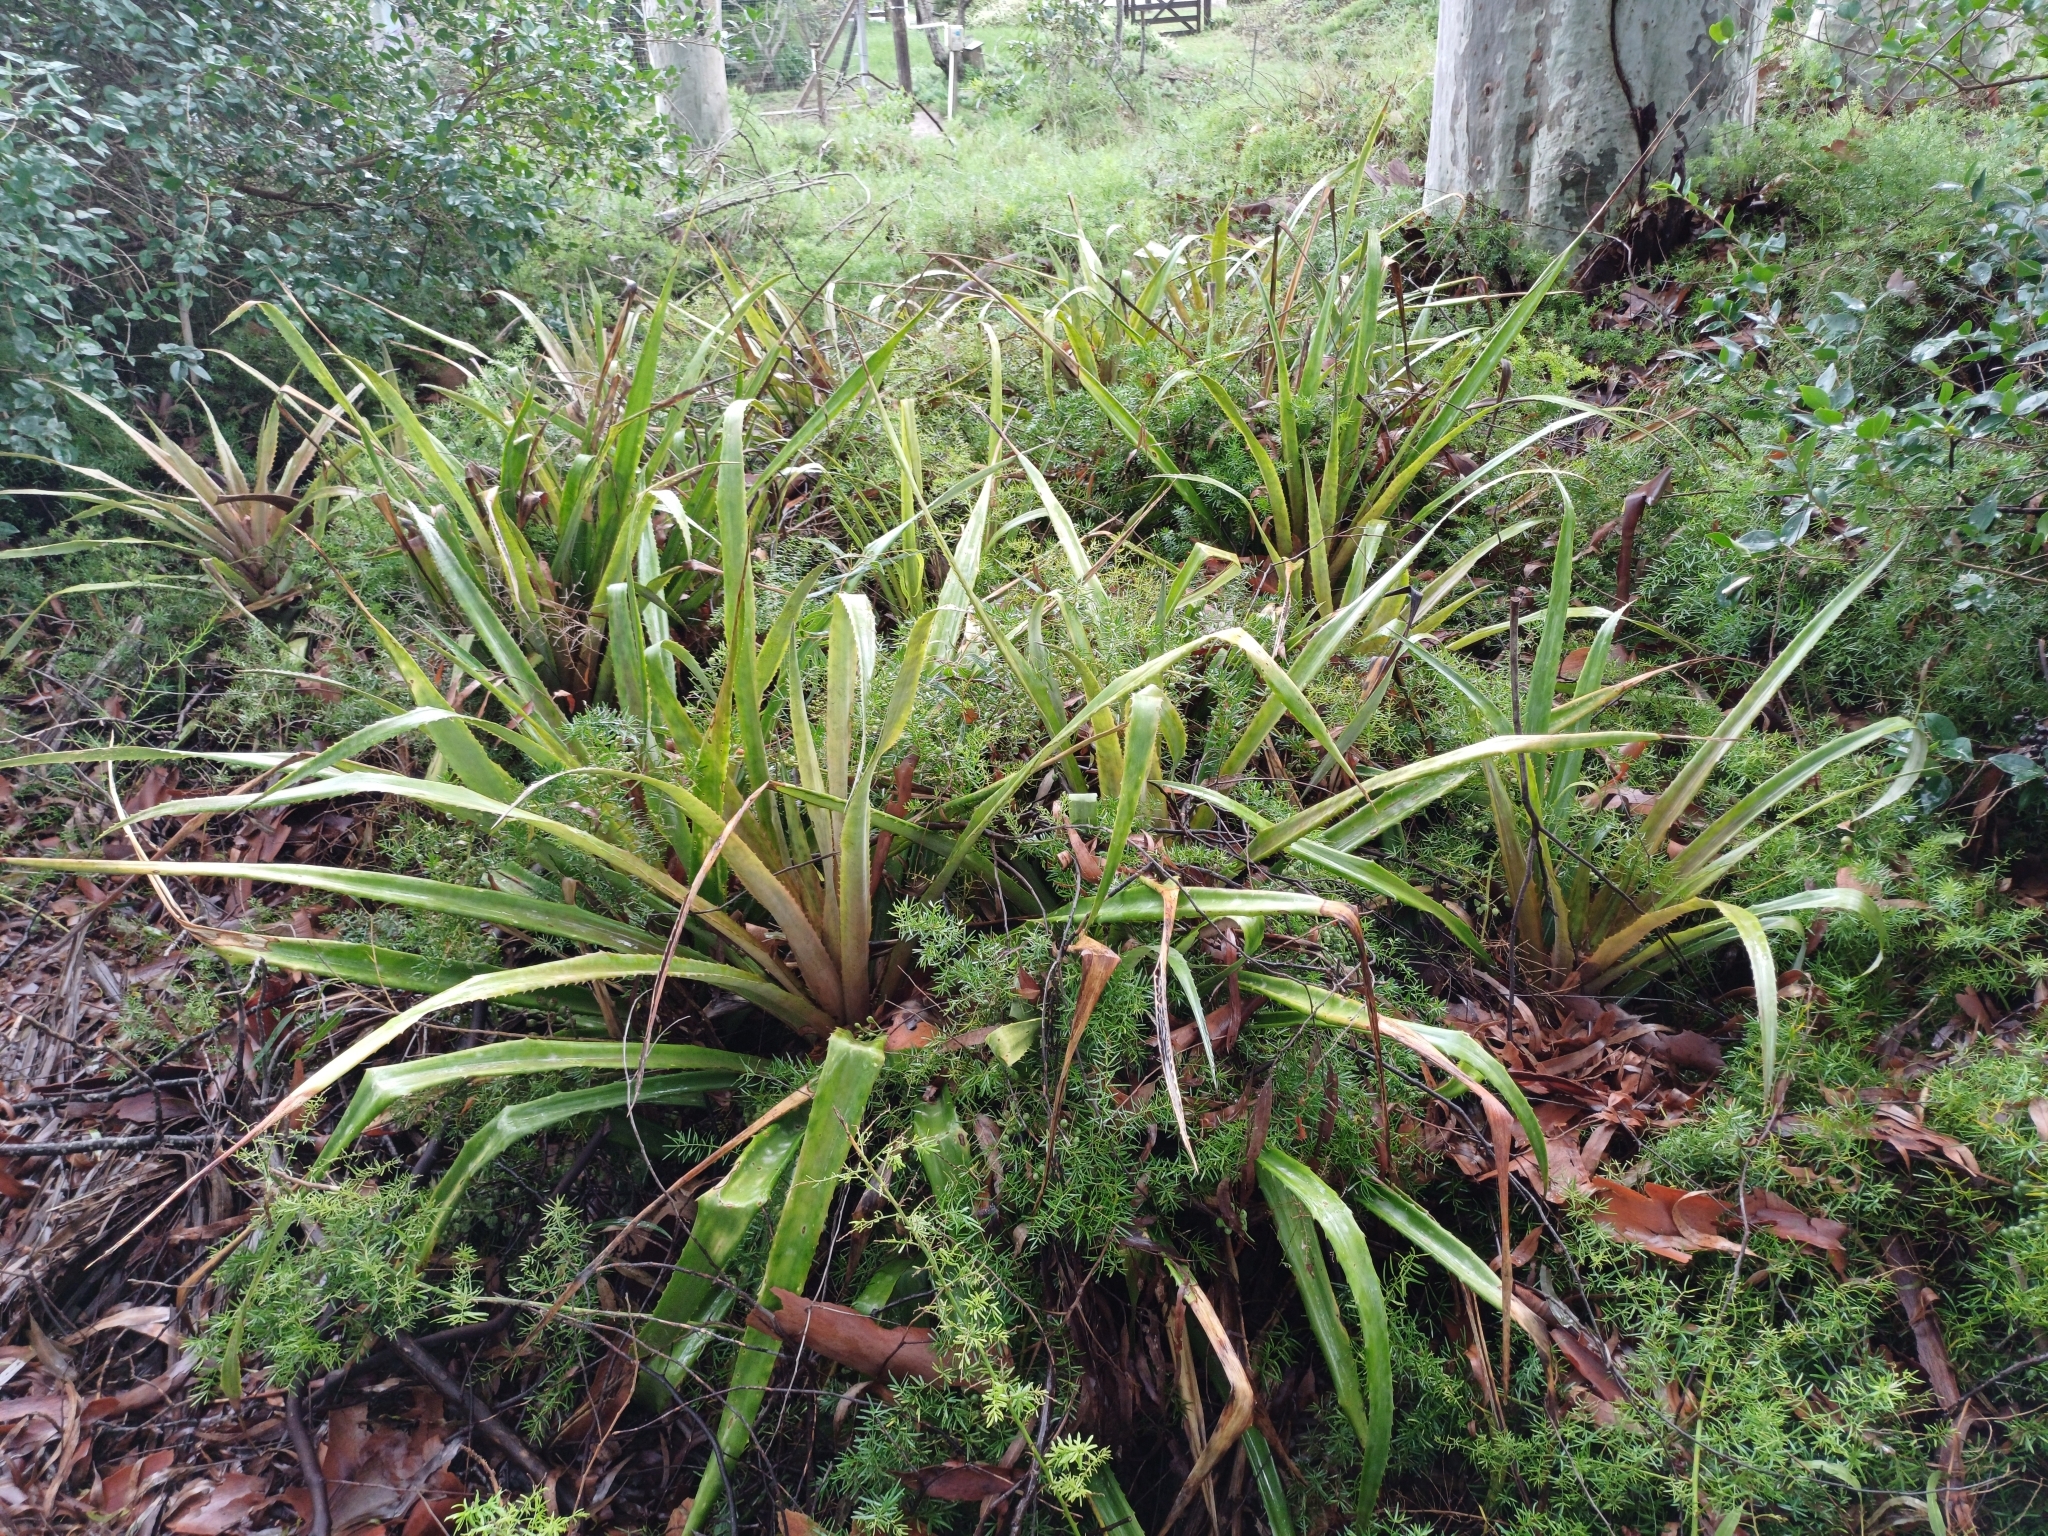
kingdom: Plantae
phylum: Tracheophyta
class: Liliopsida
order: Poales
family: Bromeliaceae
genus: Bromelia
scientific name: Bromelia antiacantha
